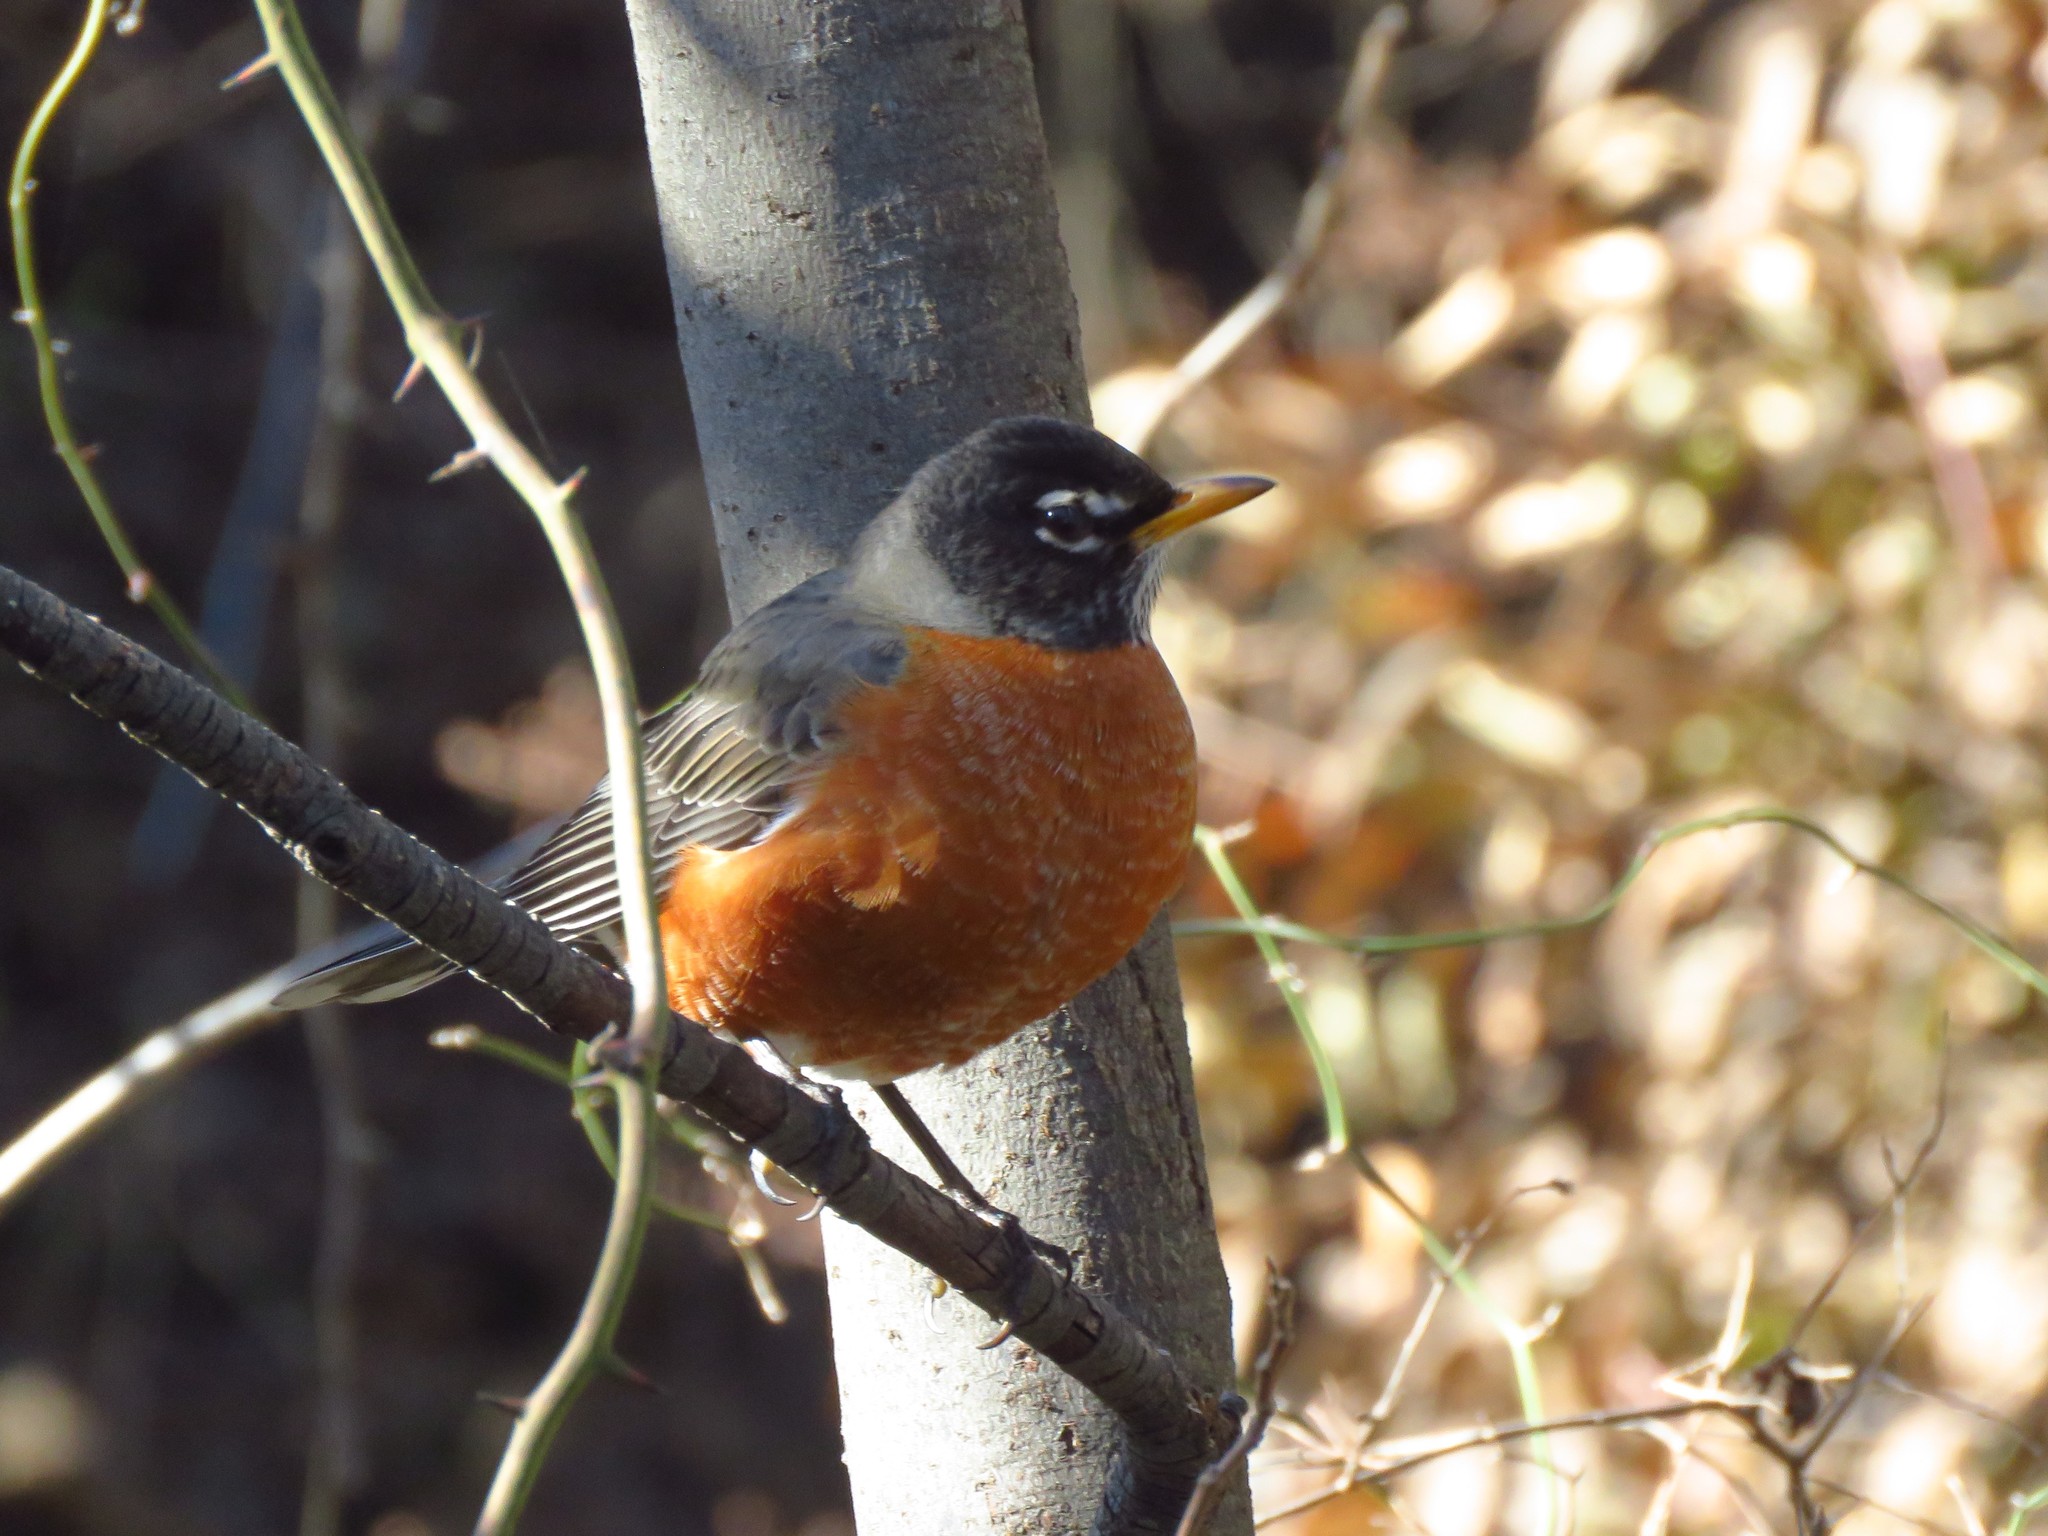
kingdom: Animalia
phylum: Chordata
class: Aves
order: Passeriformes
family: Turdidae
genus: Turdus
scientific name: Turdus migratorius
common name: American robin
